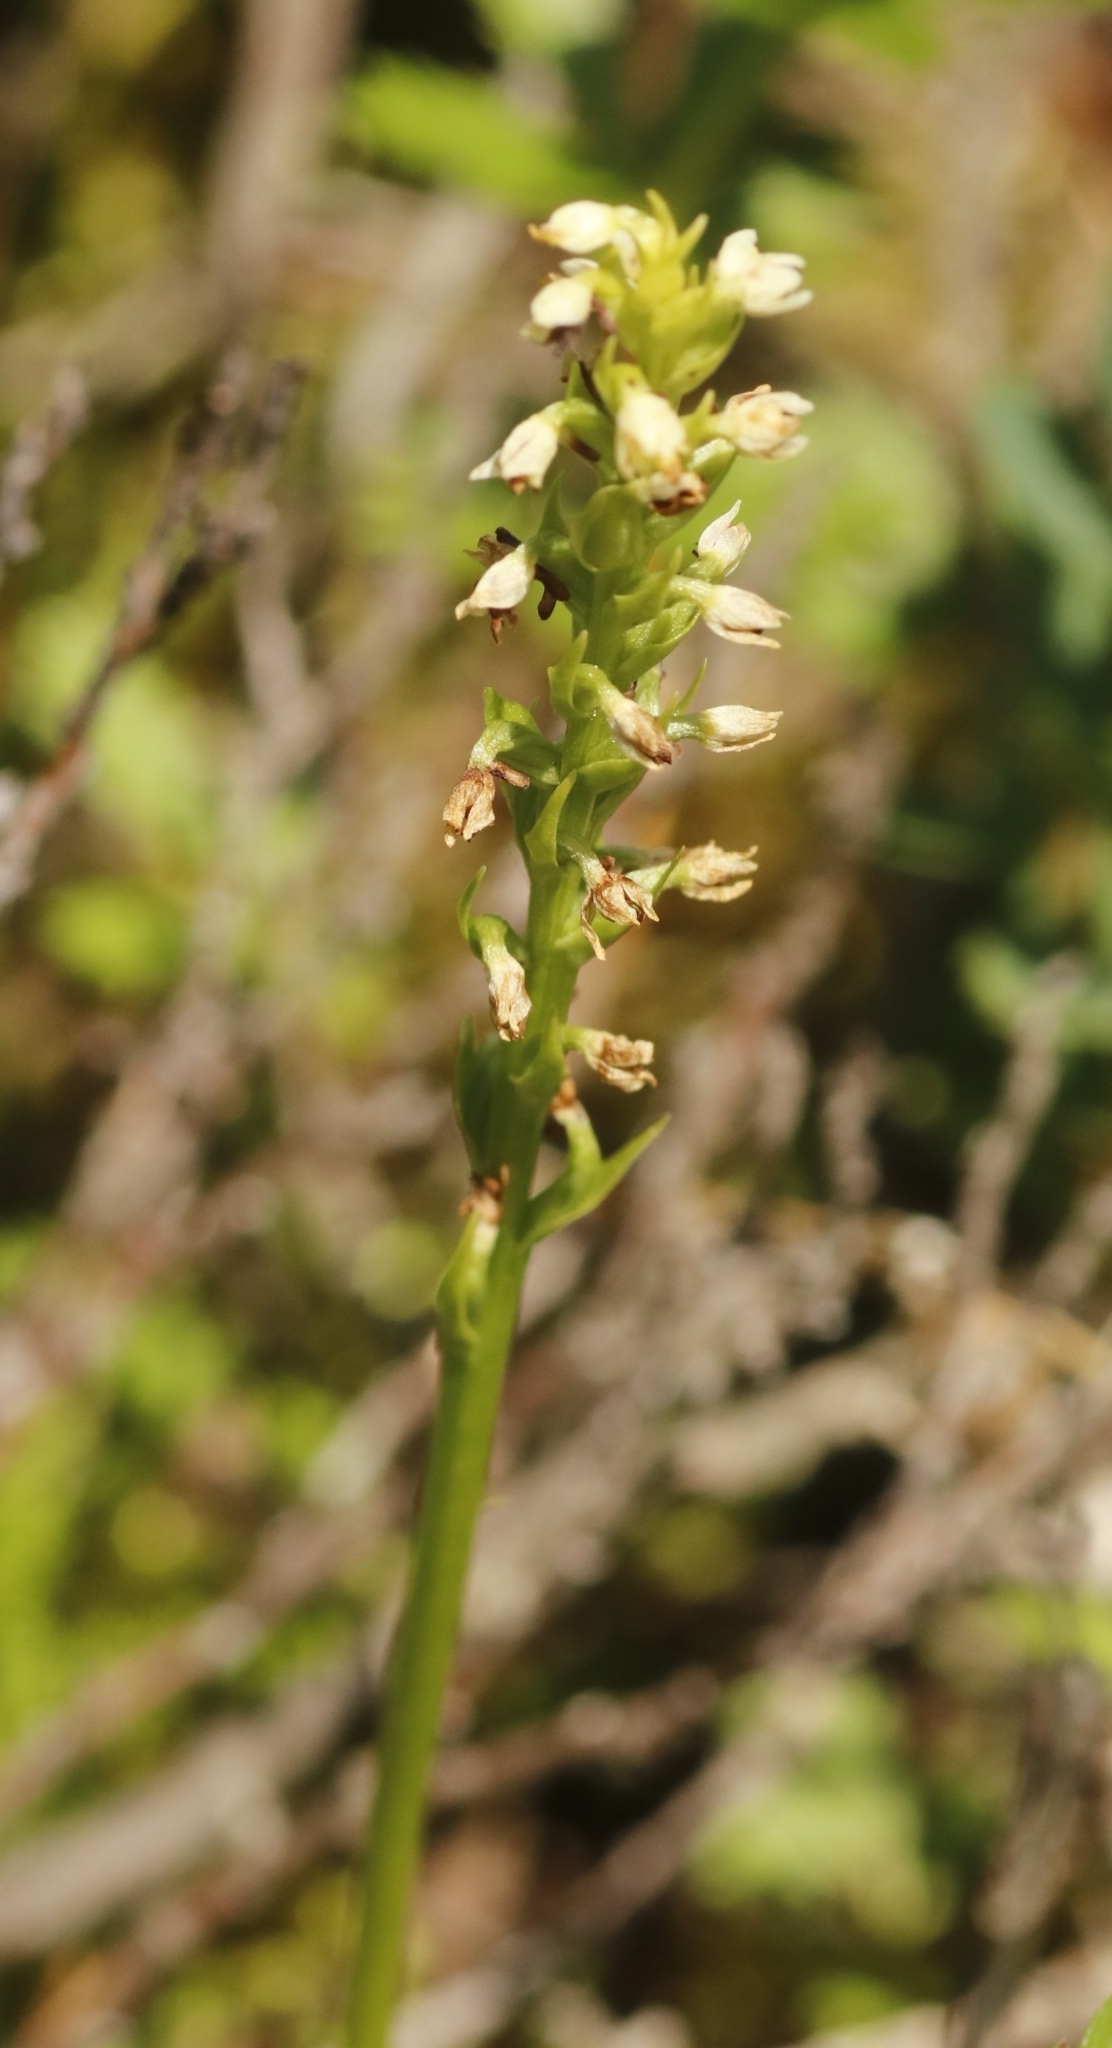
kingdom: Plantae
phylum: Tracheophyta
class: Liliopsida
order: Asparagales
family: Orchidaceae
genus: Pseudorchis
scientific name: Pseudorchis albida
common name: Small-white orchid
